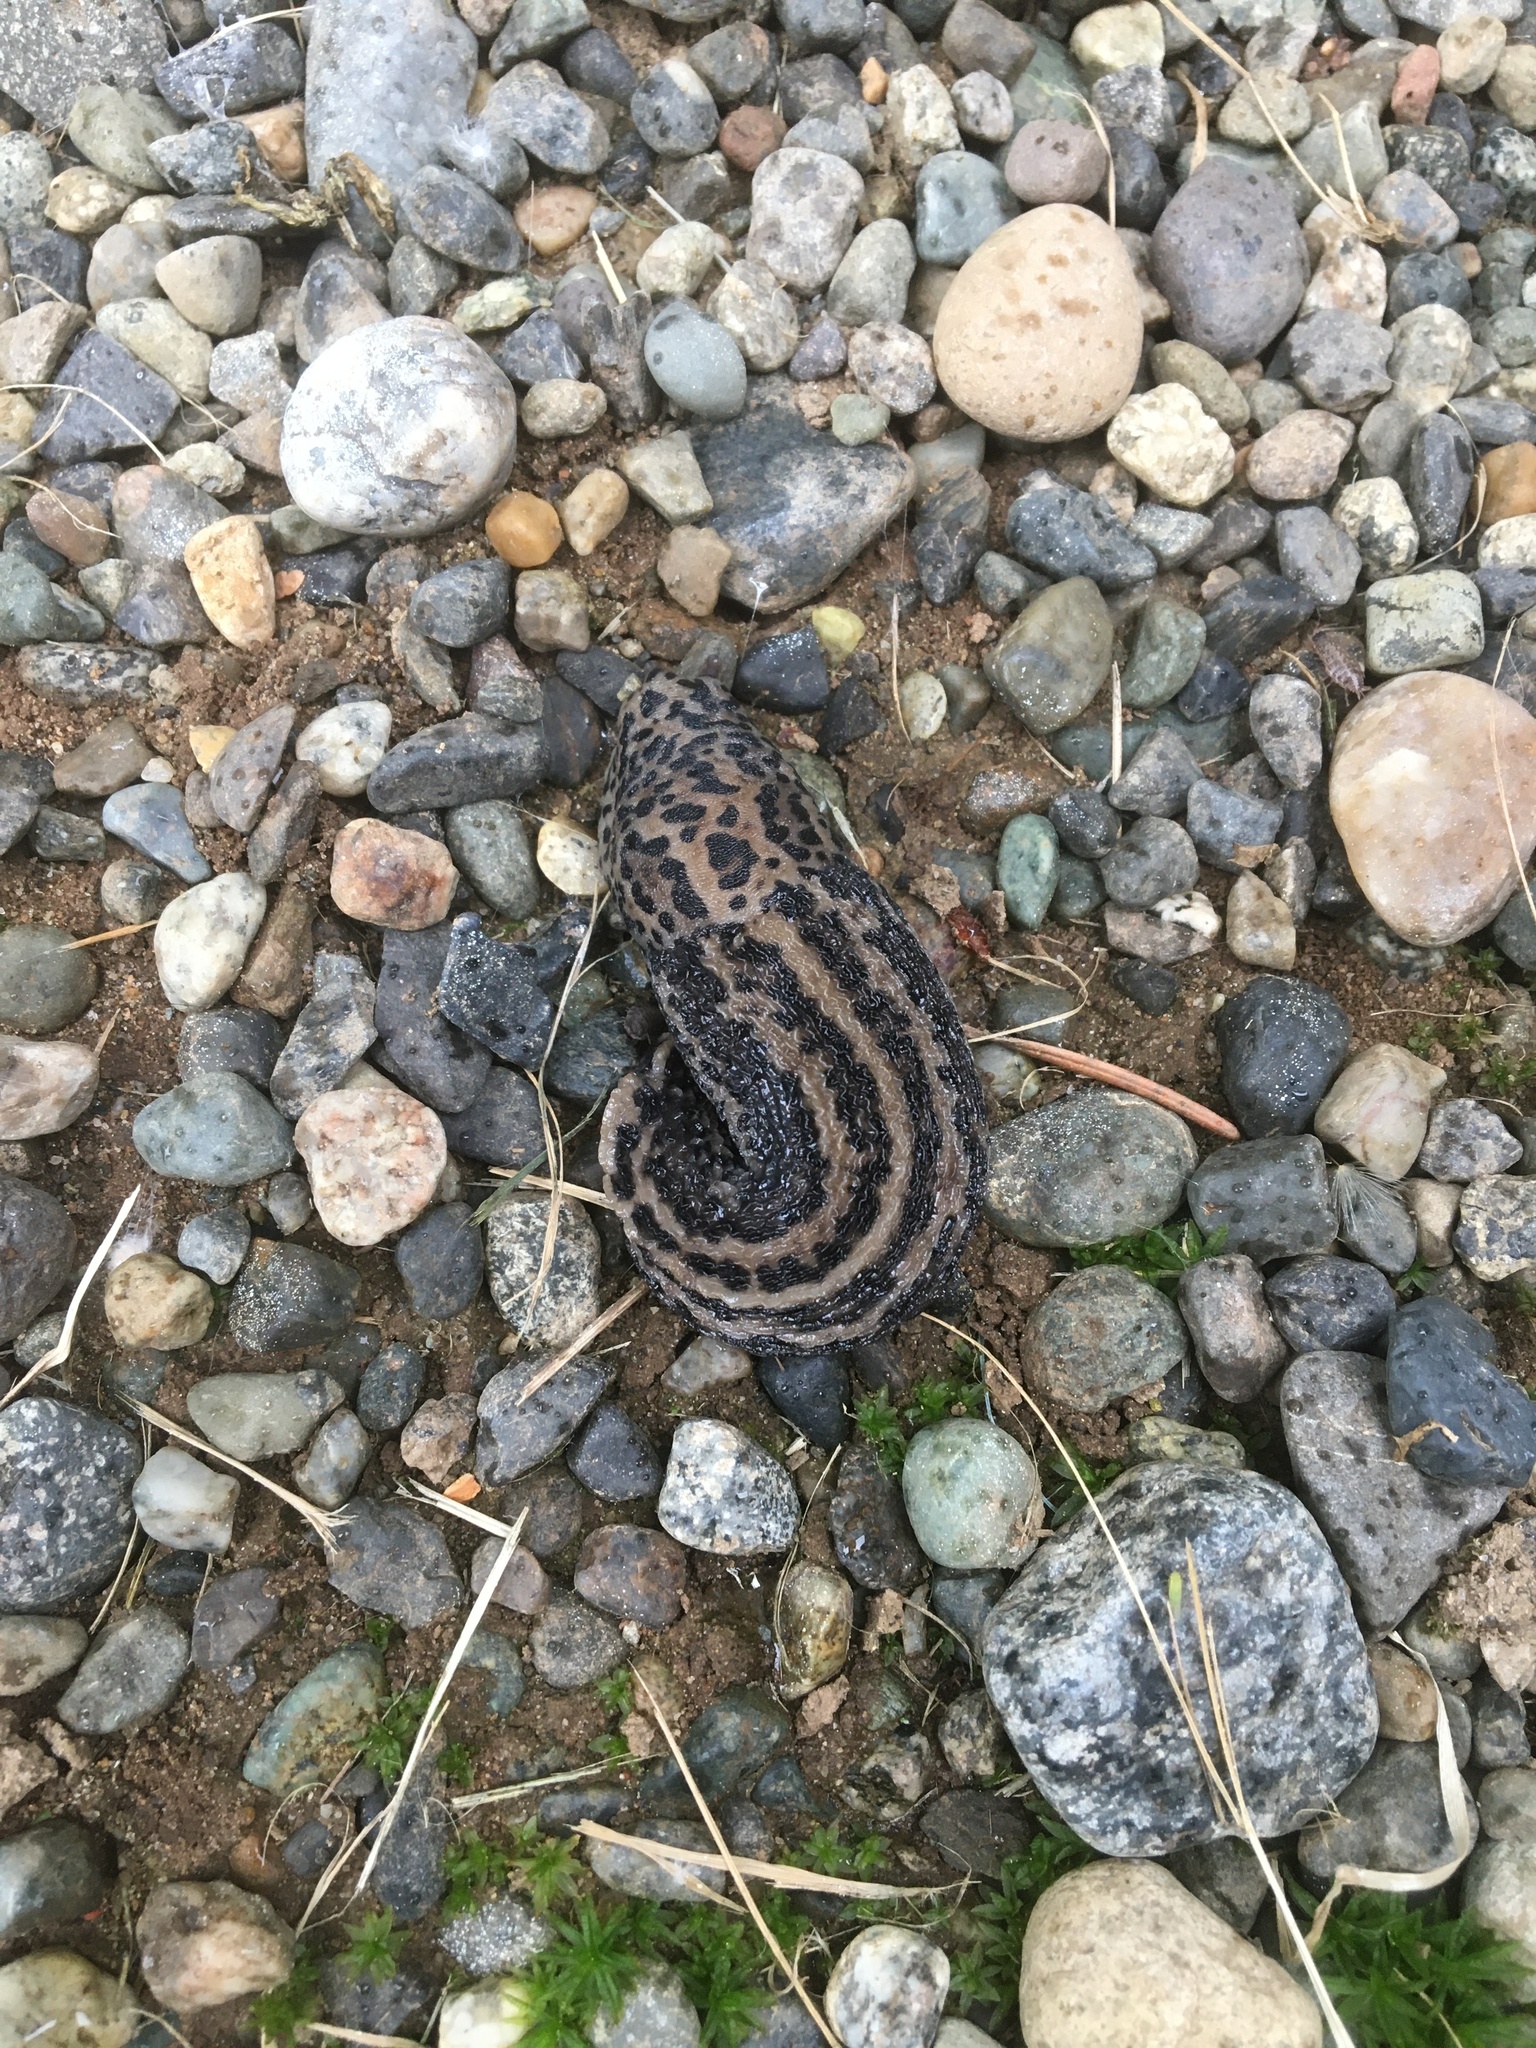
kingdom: Animalia
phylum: Mollusca
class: Gastropoda
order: Stylommatophora
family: Limacidae
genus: Limax
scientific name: Limax maximus
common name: Great grey slug
